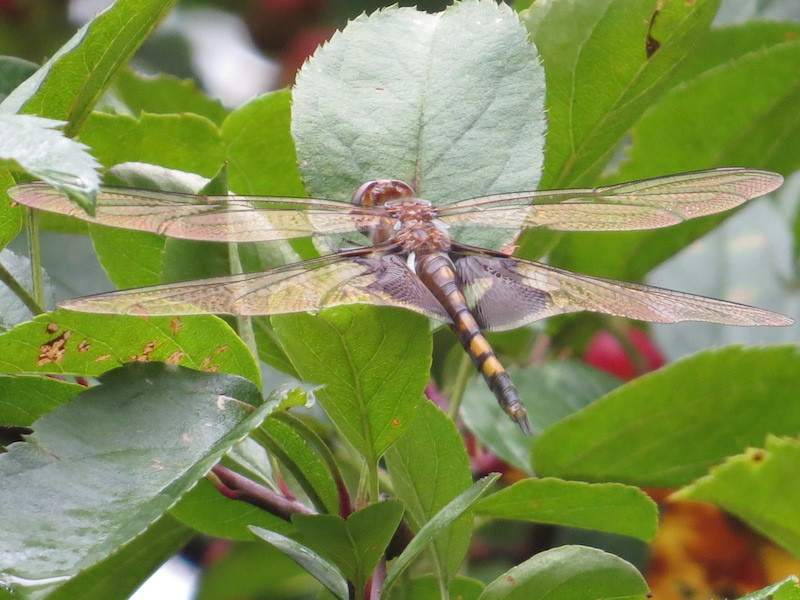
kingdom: Animalia
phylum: Arthropoda
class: Insecta
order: Odonata
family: Libellulidae
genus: Tramea
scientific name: Tramea lacerata
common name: Black saddlebags
